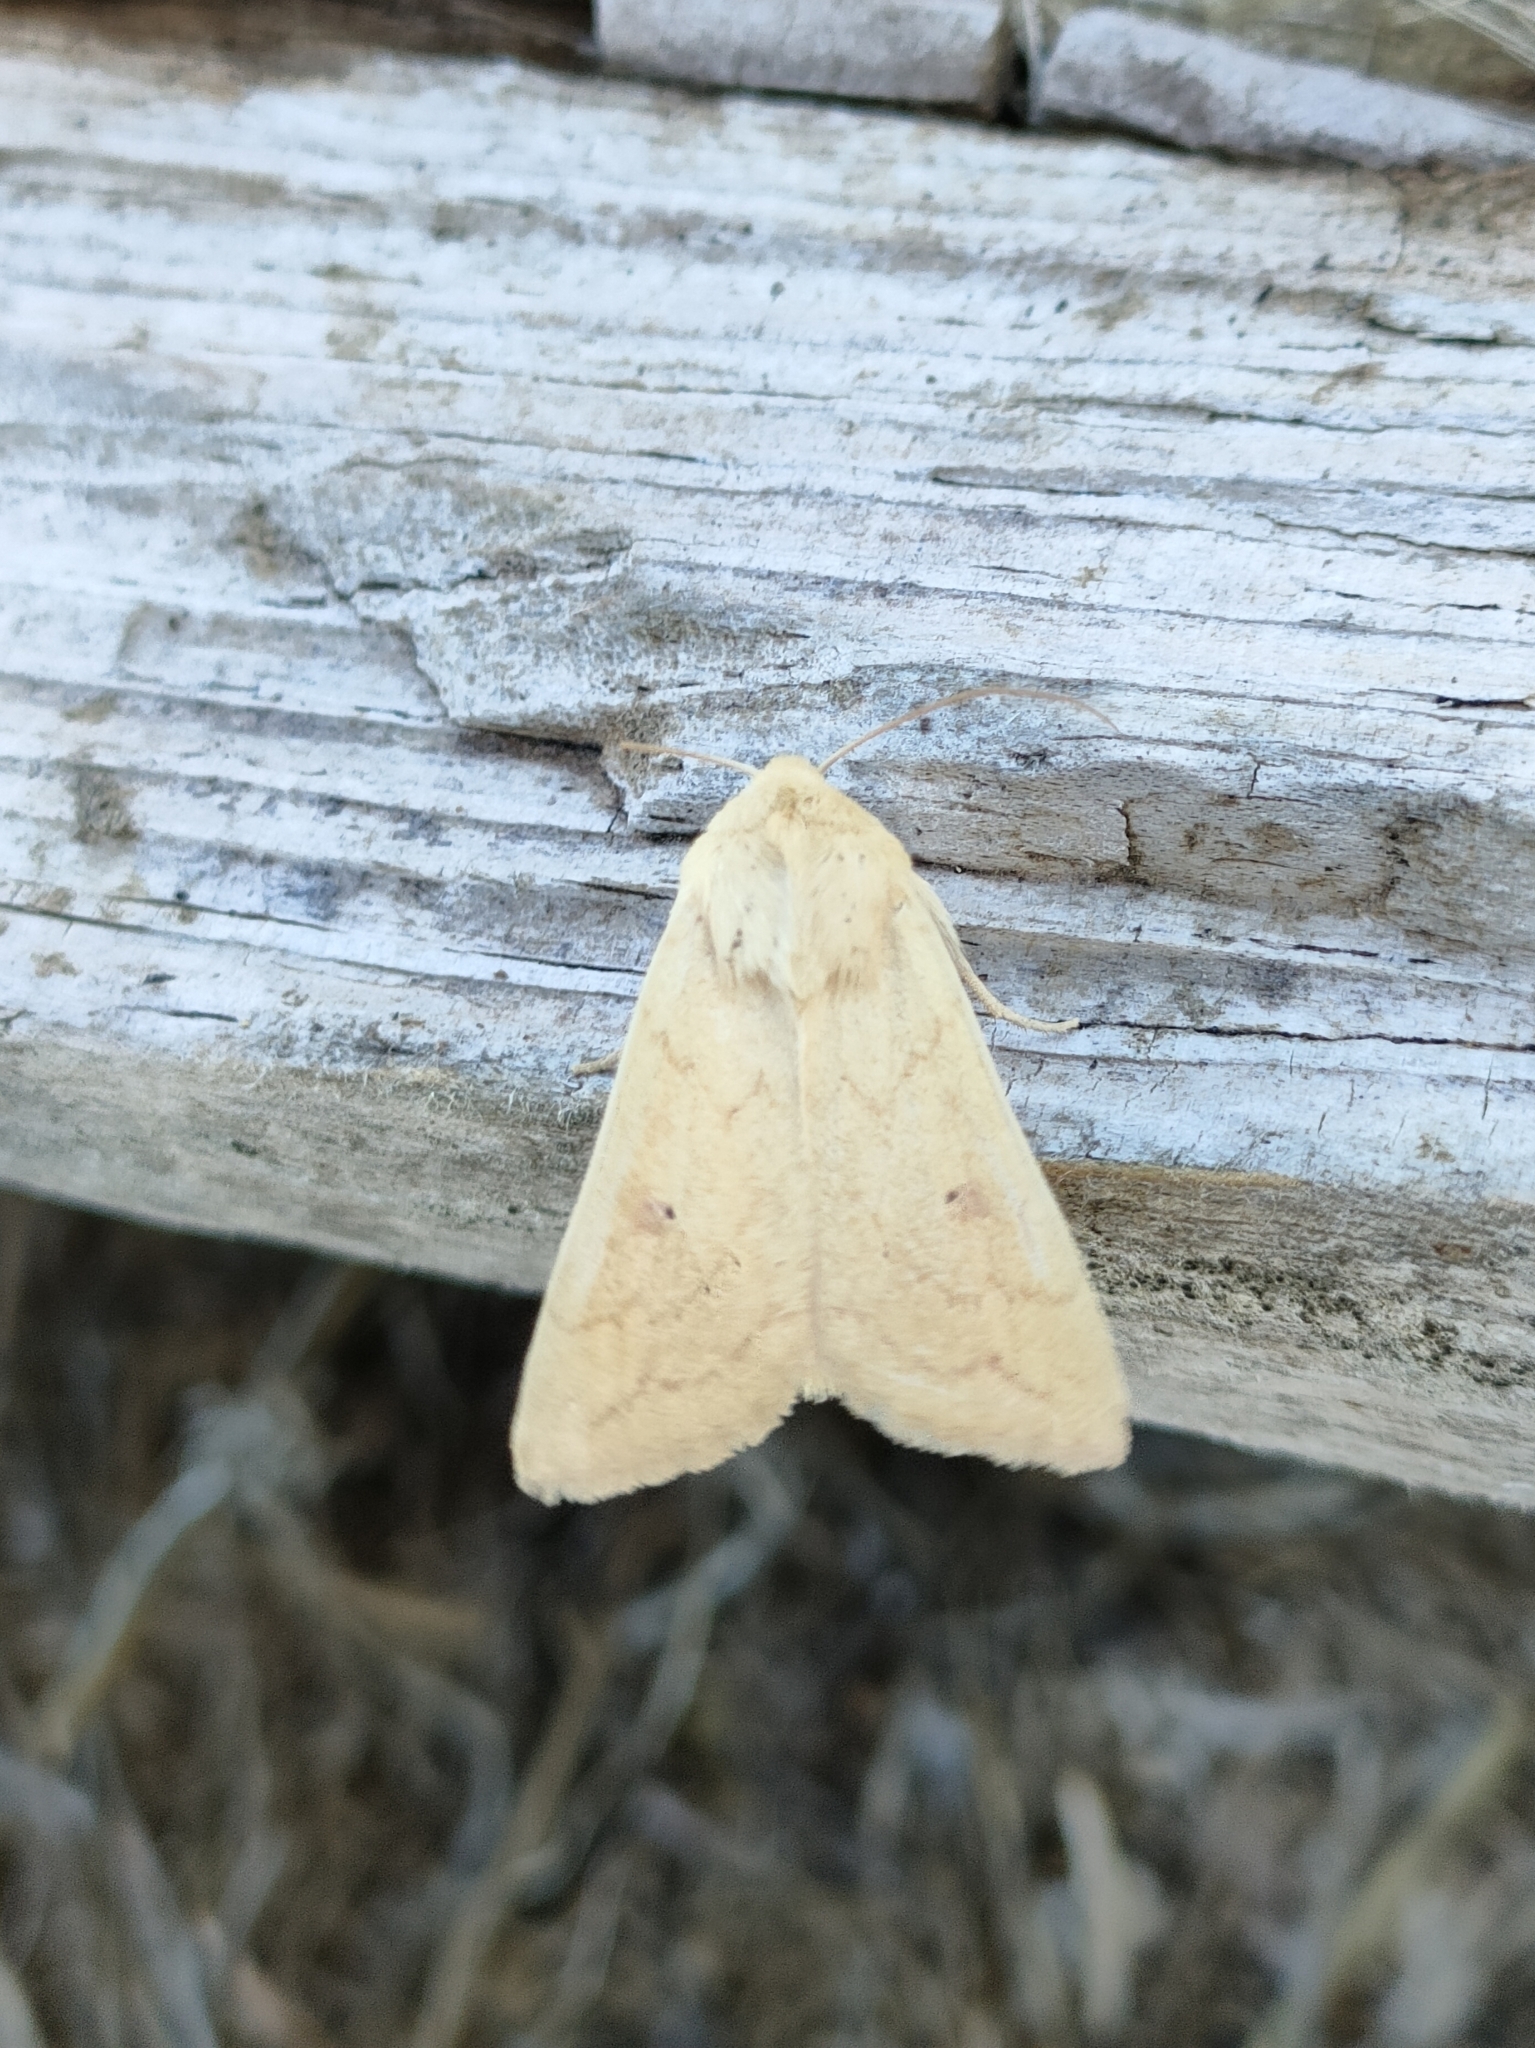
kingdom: Animalia
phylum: Arthropoda
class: Insecta
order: Lepidoptera
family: Noctuidae
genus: Mythimna
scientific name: Mythimna vitellina
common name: Delicate
